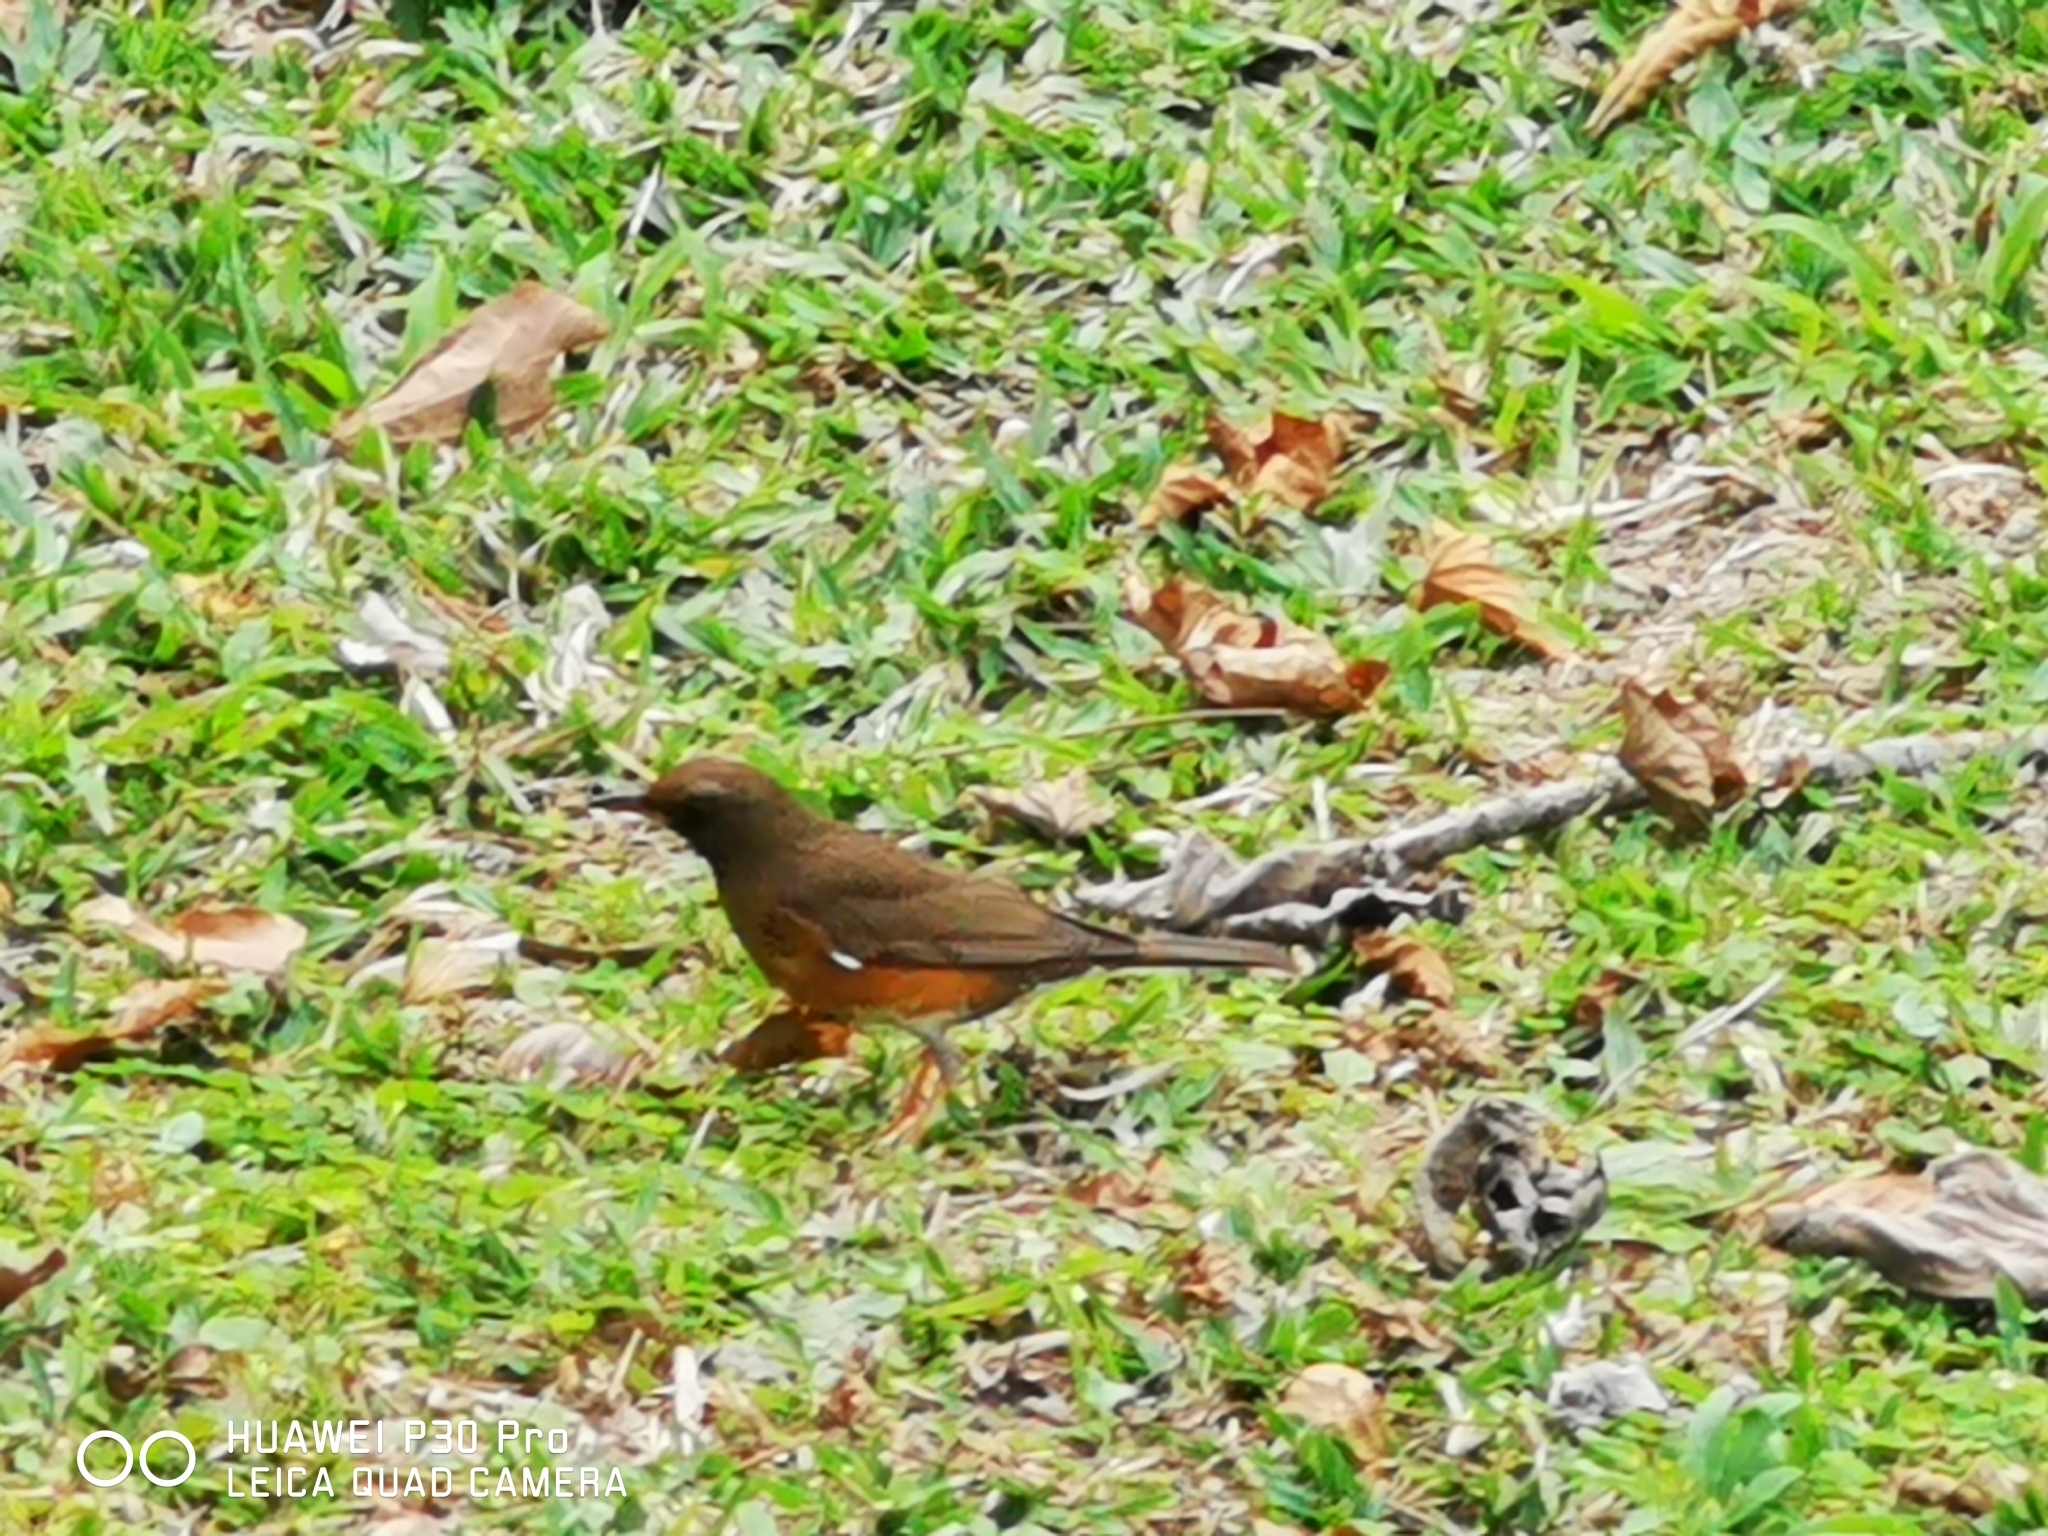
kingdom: Animalia
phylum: Chordata
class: Aves
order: Passeriformes
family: Turdidae
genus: Turdus
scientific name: Turdus chrysolaus
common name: Brown-headed thrush
